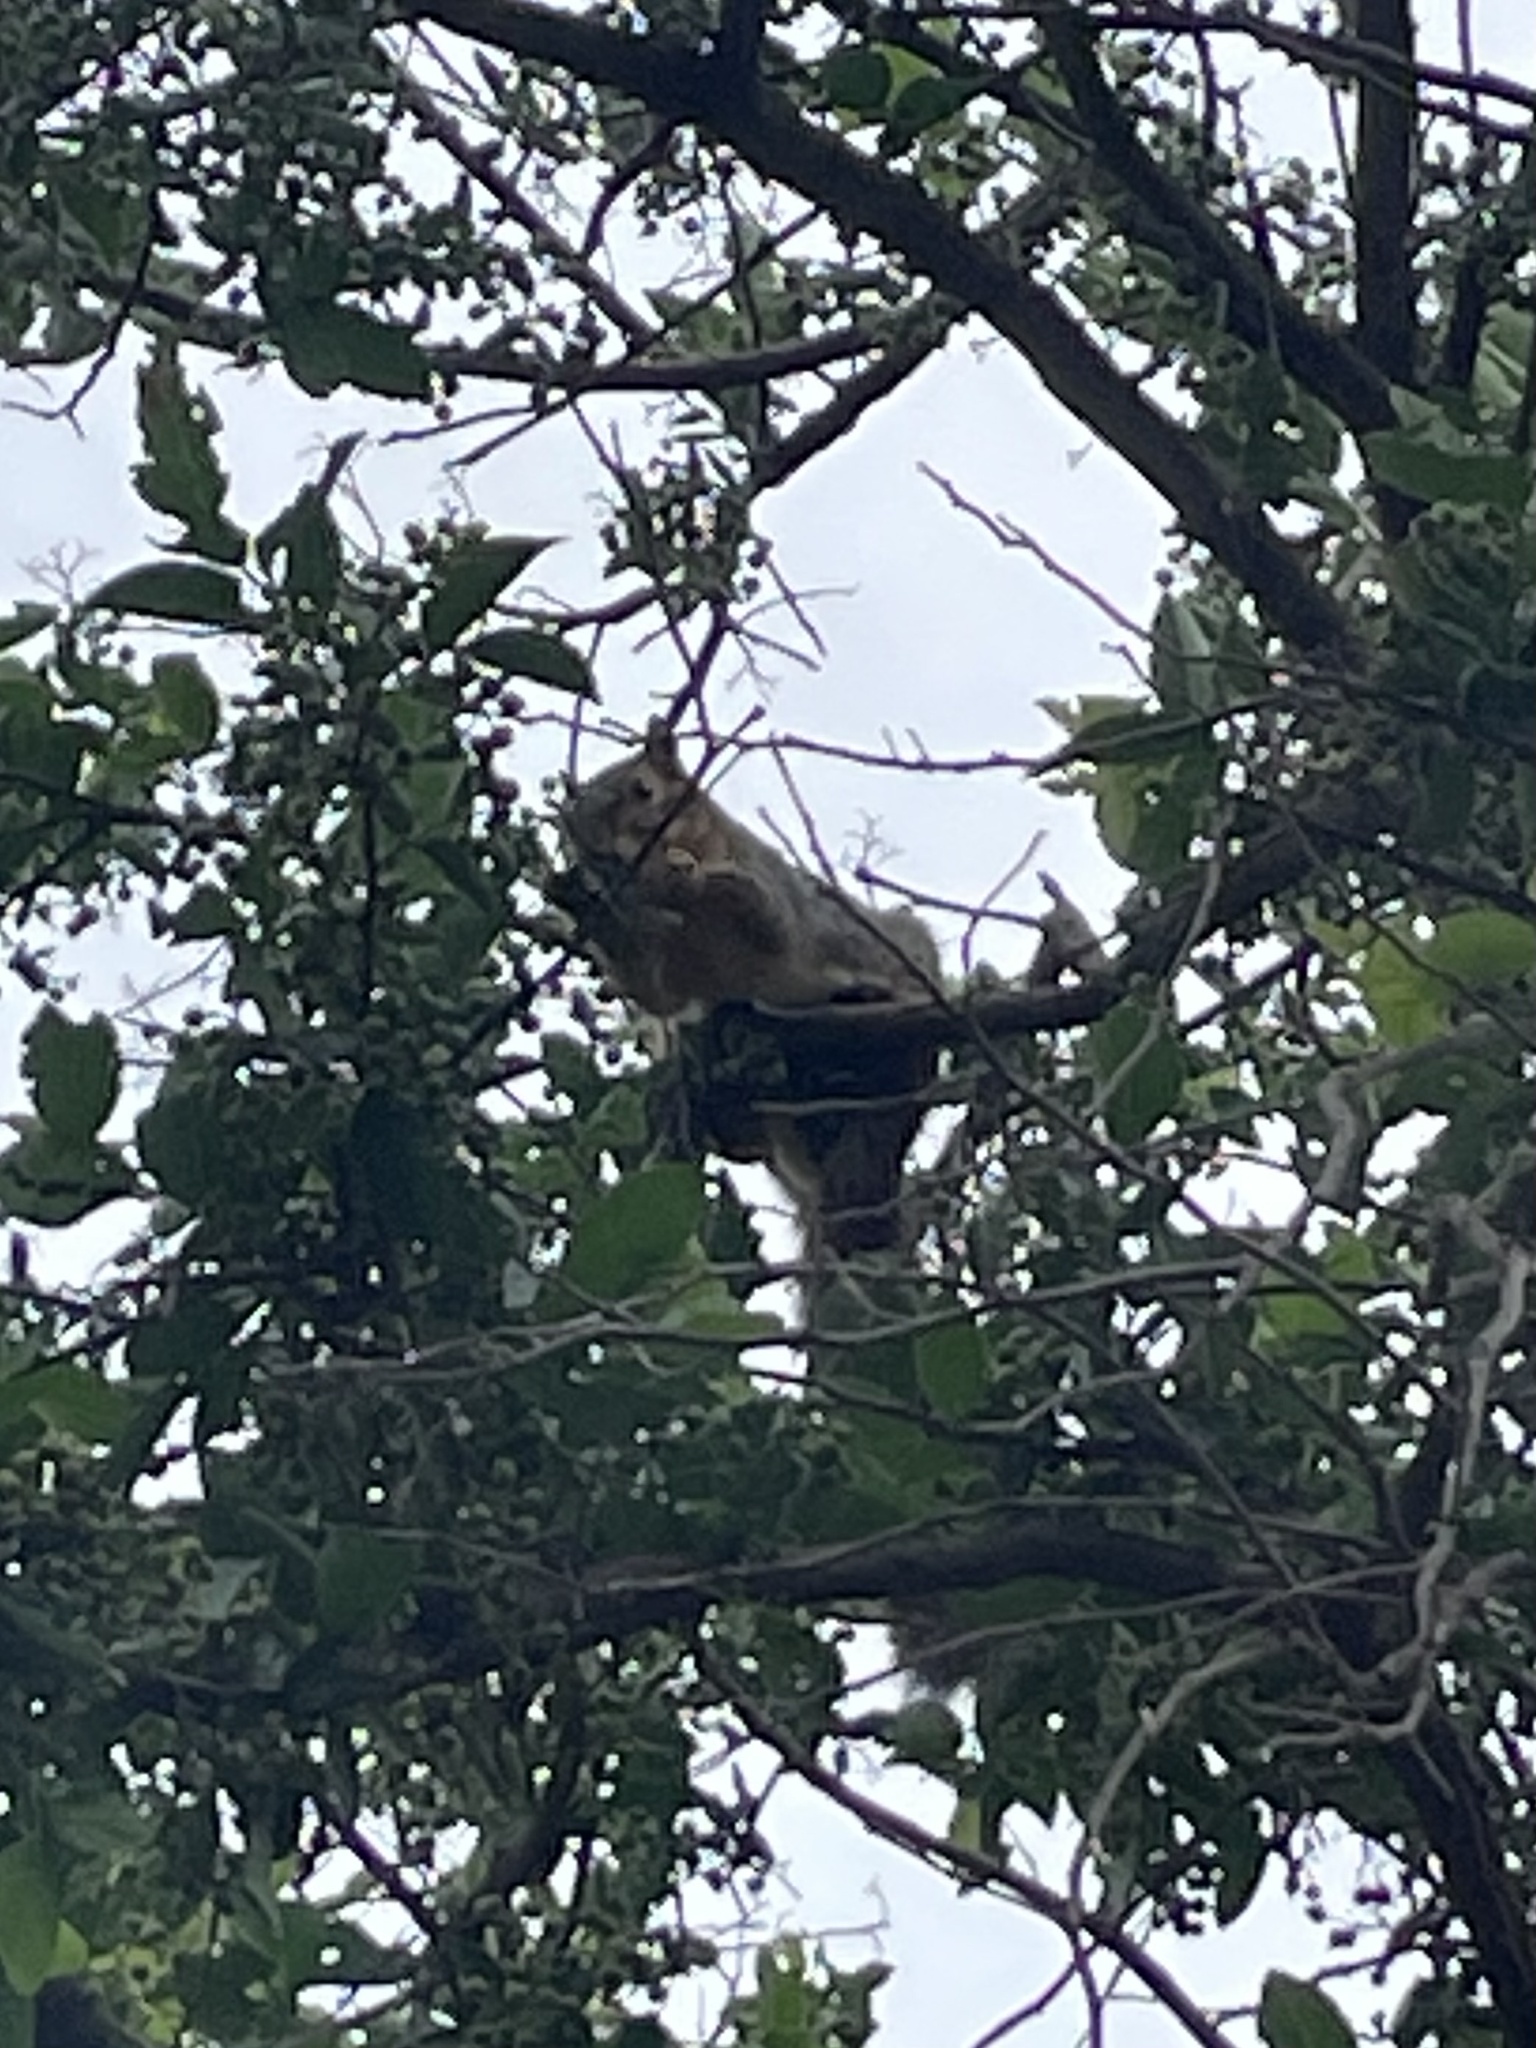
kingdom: Animalia
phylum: Chordata
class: Mammalia
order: Rodentia
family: Sciuridae
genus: Sciurus
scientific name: Sciurus niger
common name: Fox squirrel
